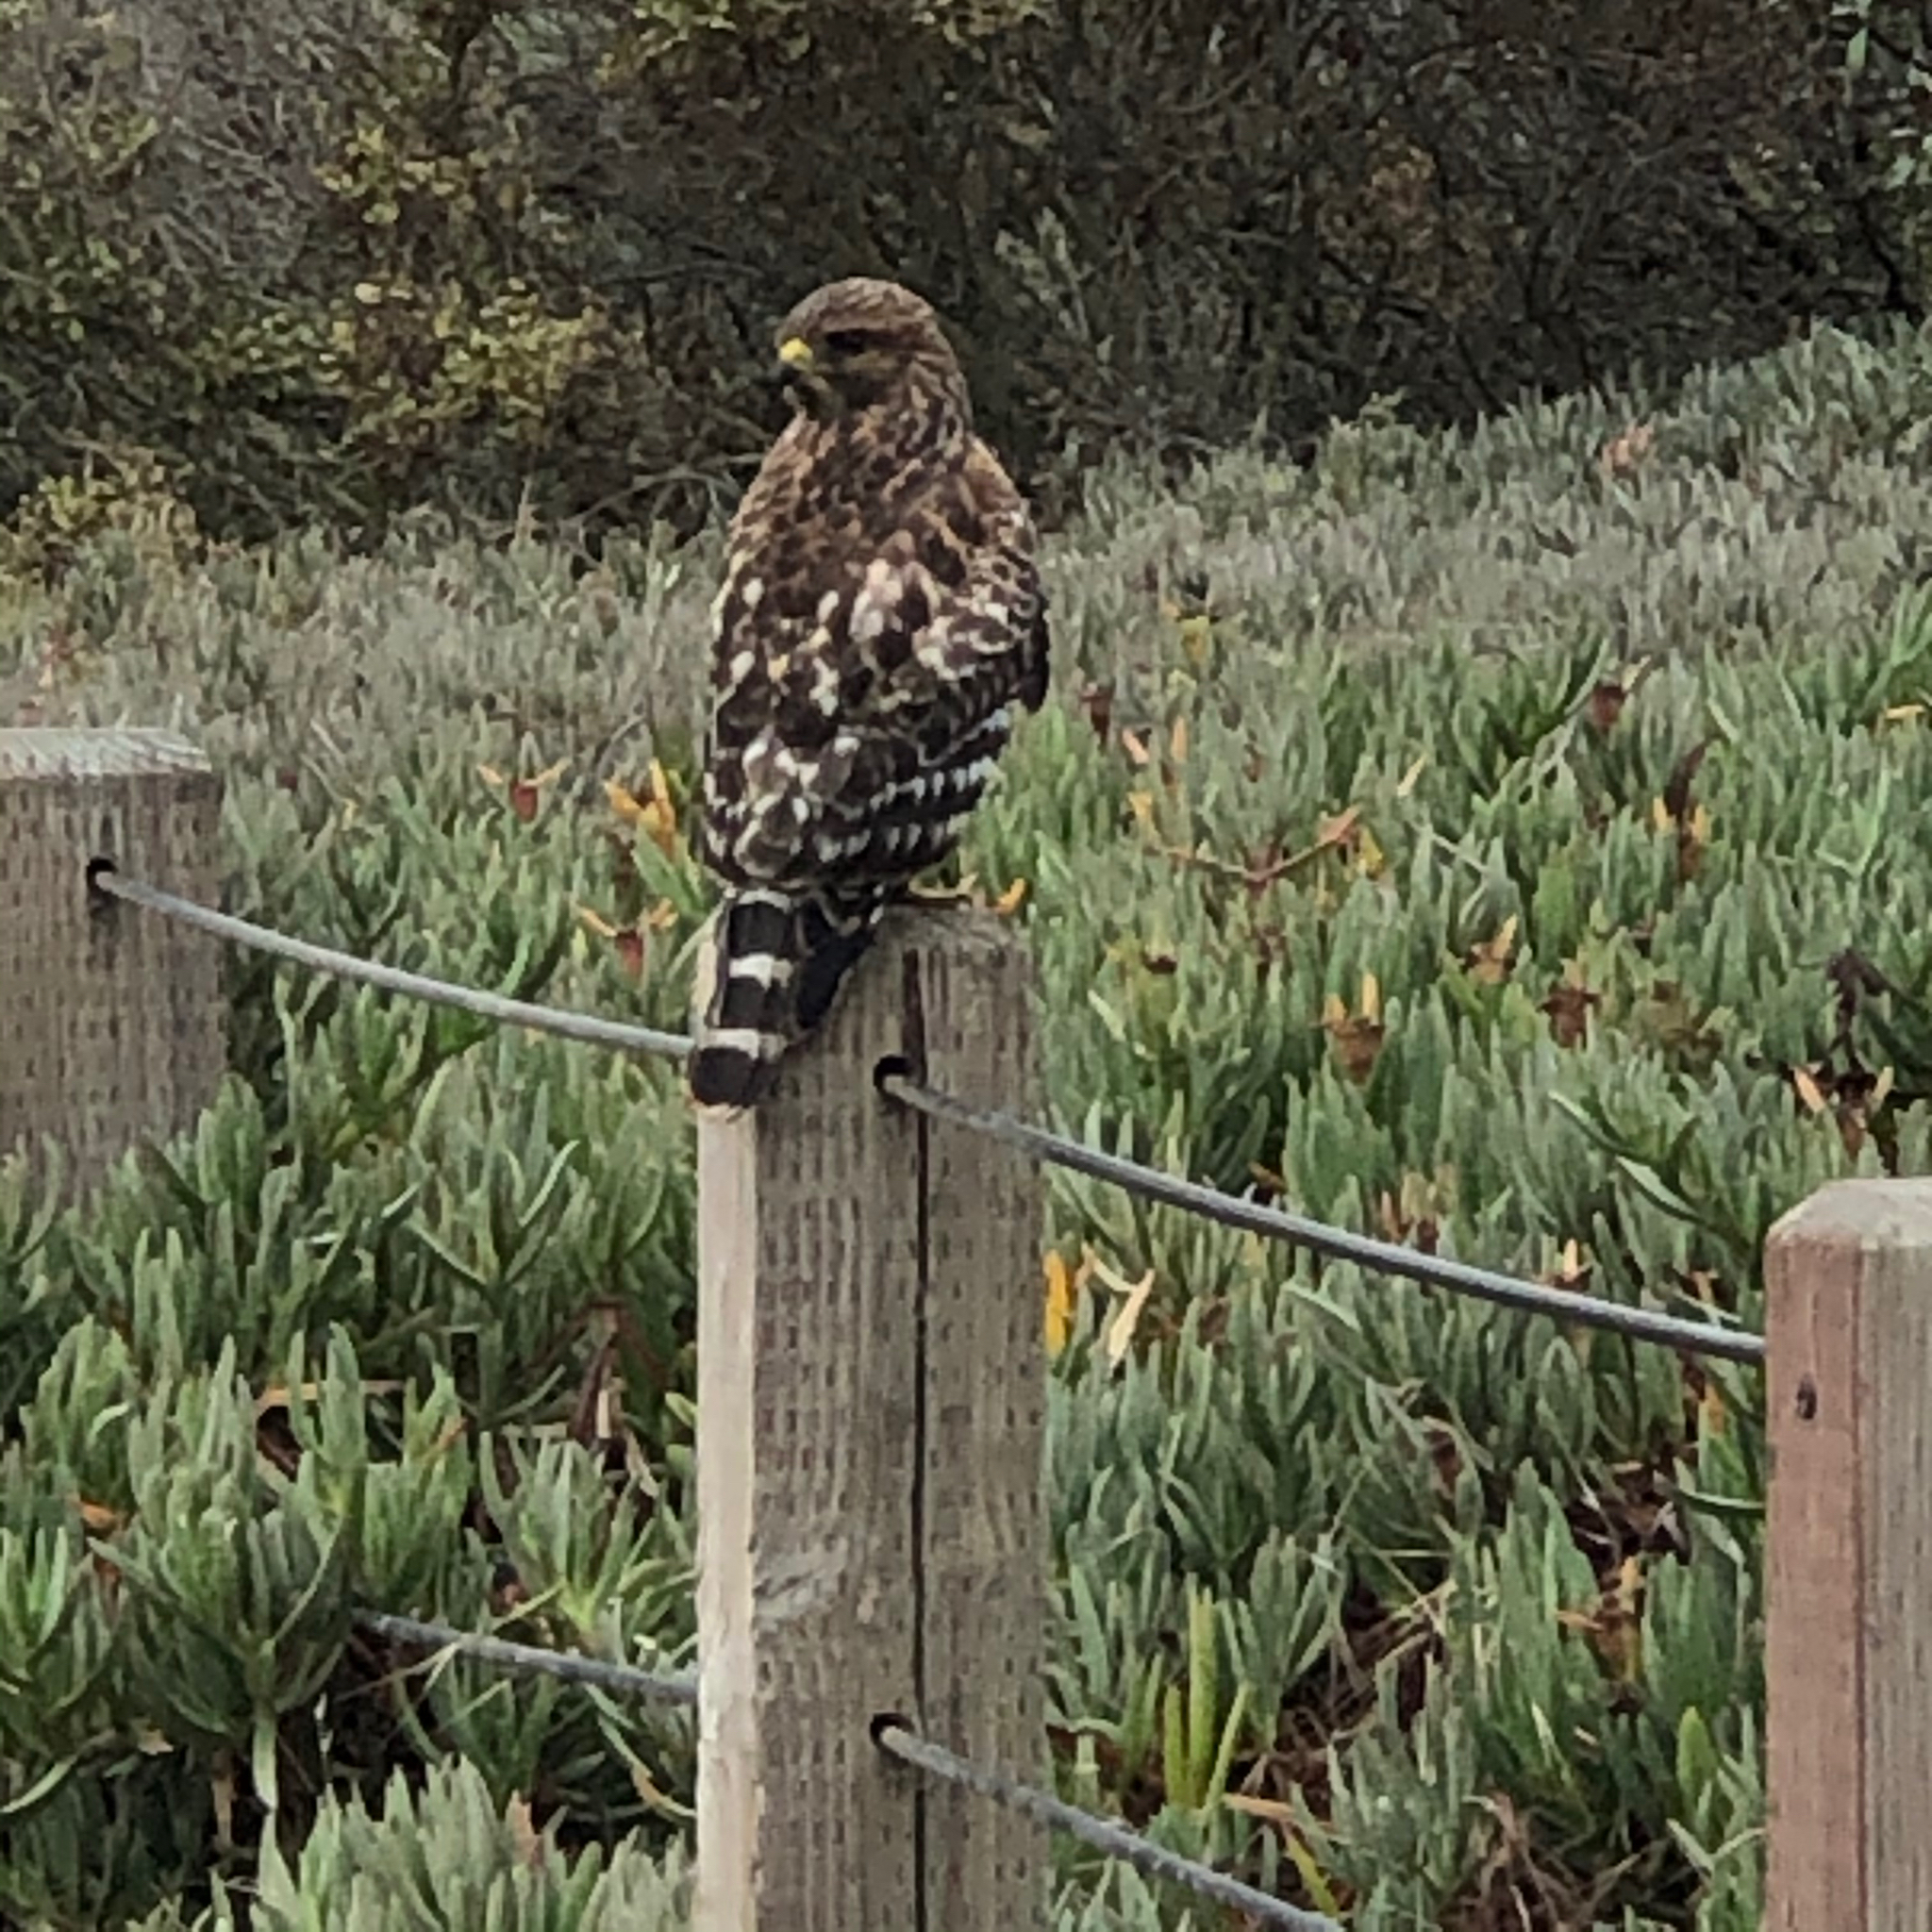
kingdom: Animalia
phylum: Chordata
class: Aves
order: Accipitriformes
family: Accipitridae
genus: Buteo
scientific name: Buteo lineatus
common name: Red-shouldered hawk
